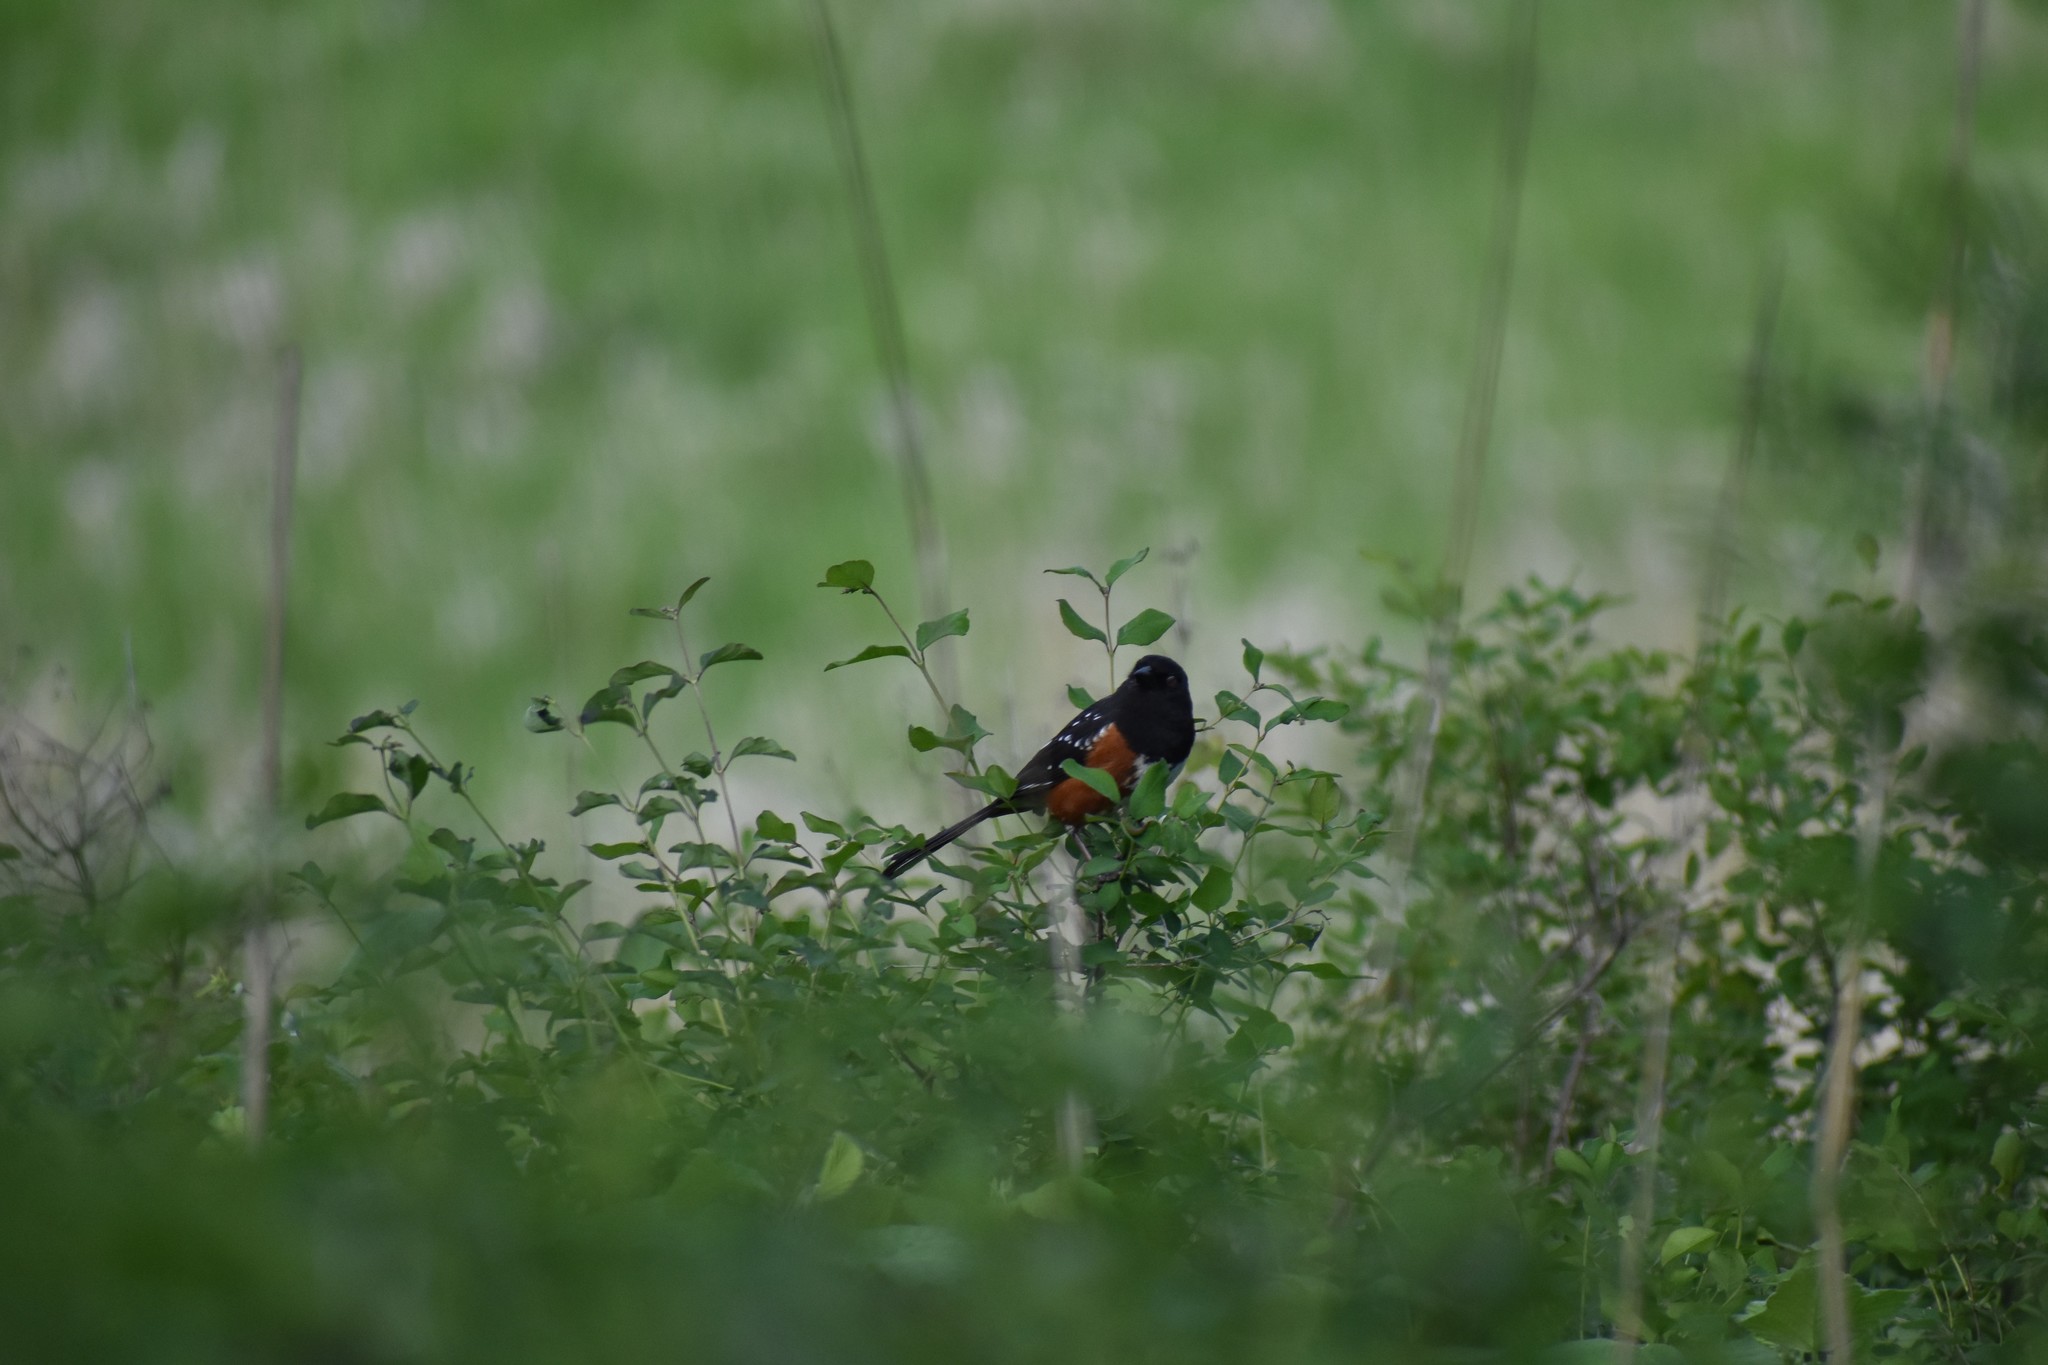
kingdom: Animalia
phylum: Chordata
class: Aves
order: Passeriformes
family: Passerellidae
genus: Pipilo
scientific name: Pipilo maculatus
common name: Spotted towhee
